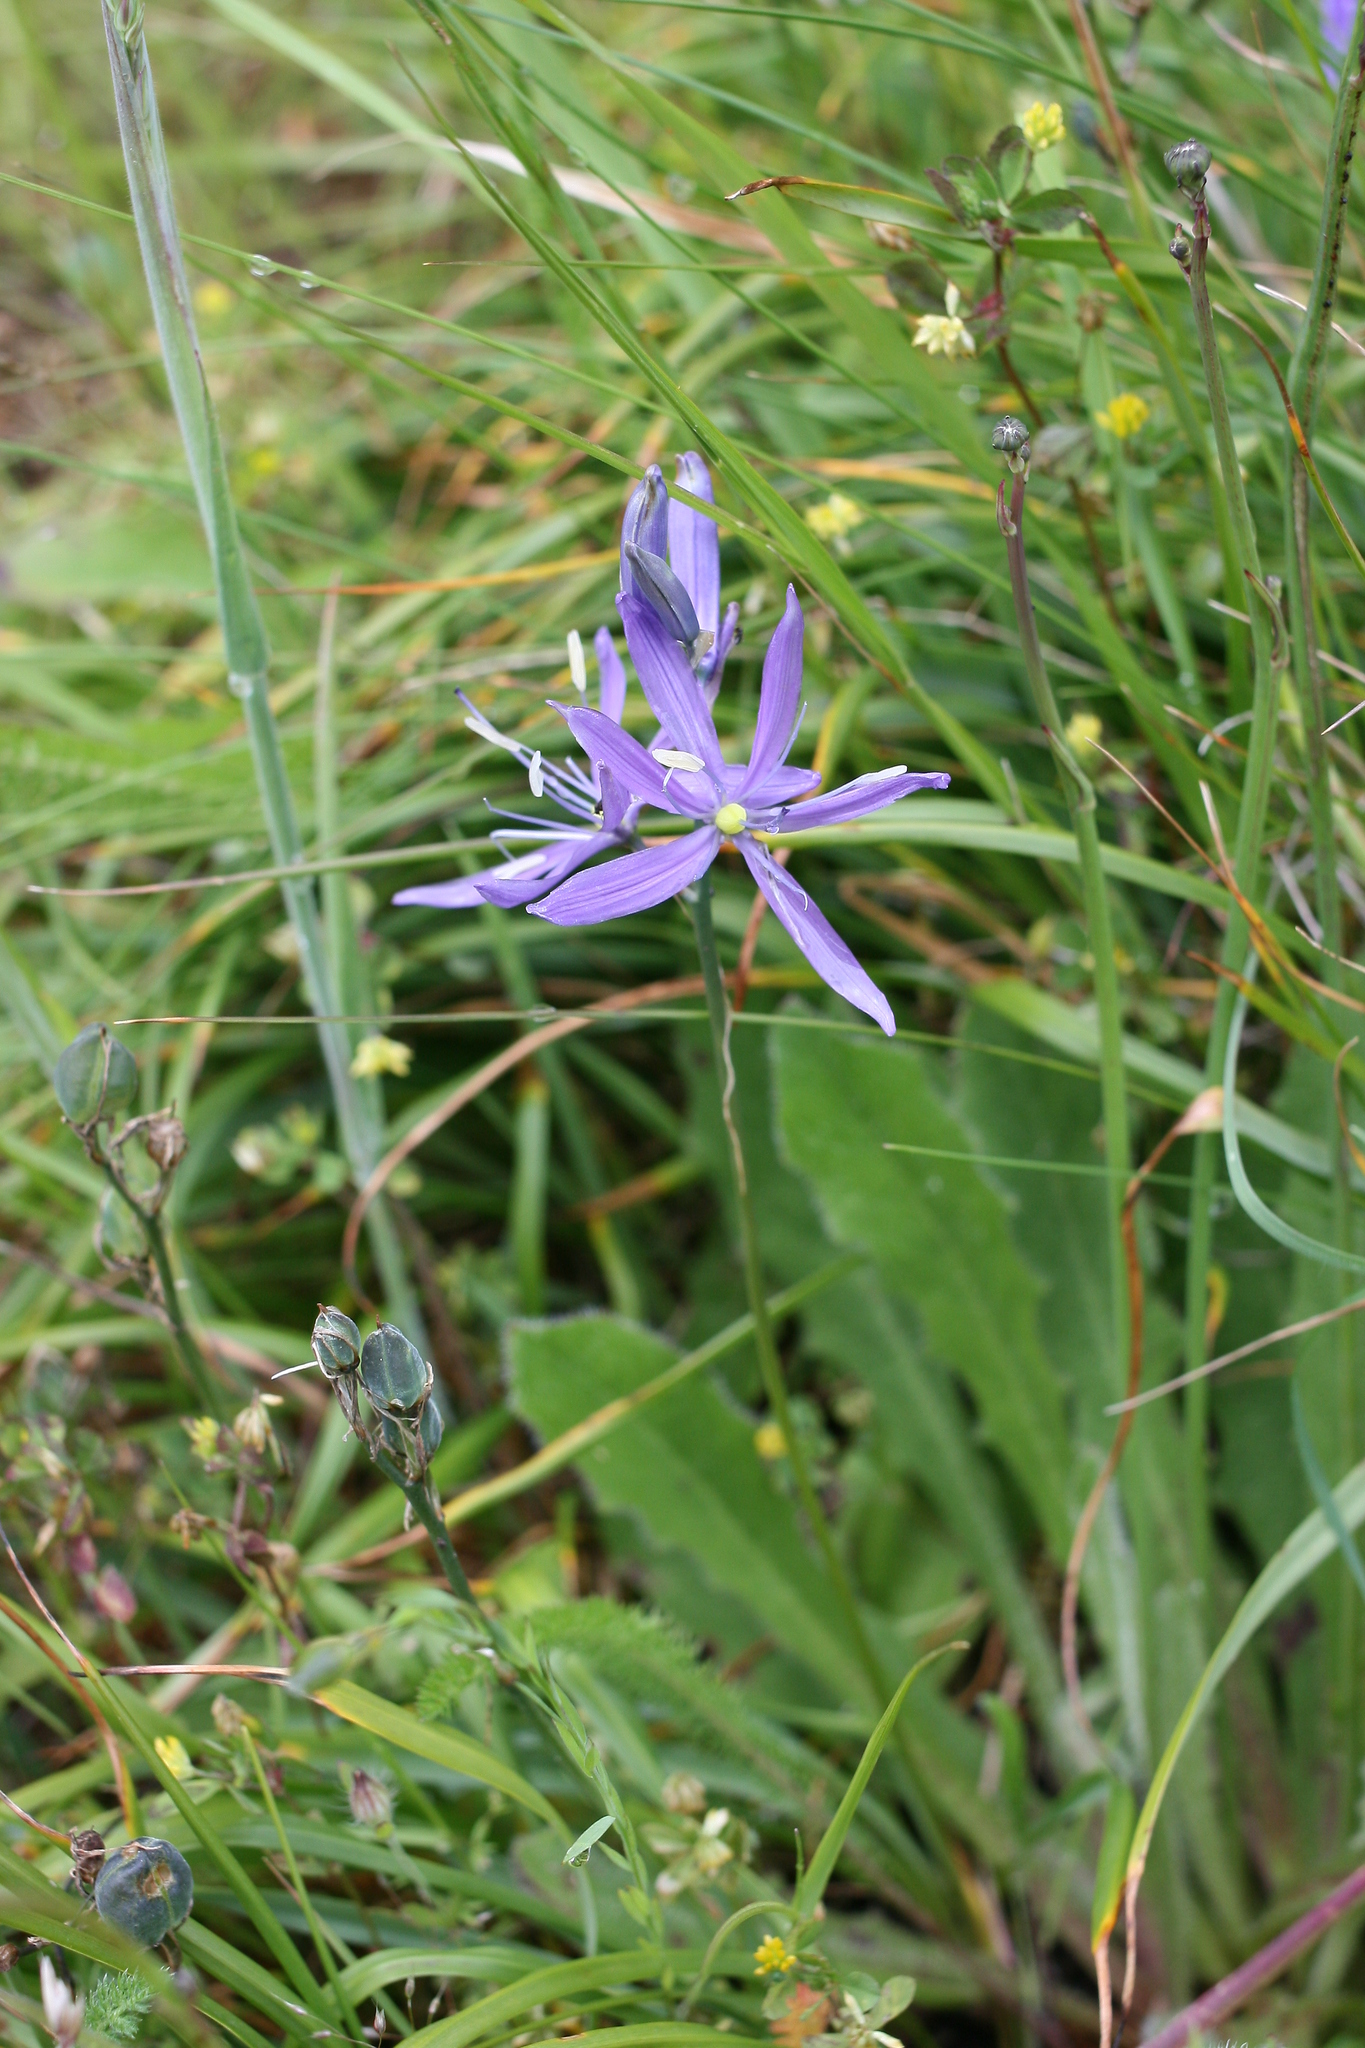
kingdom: Plantae
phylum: Tracheophyta
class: Liliopsida
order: Asparagales
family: Asparagaceae
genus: Camassia
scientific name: Camassia quamash
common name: Common camas
